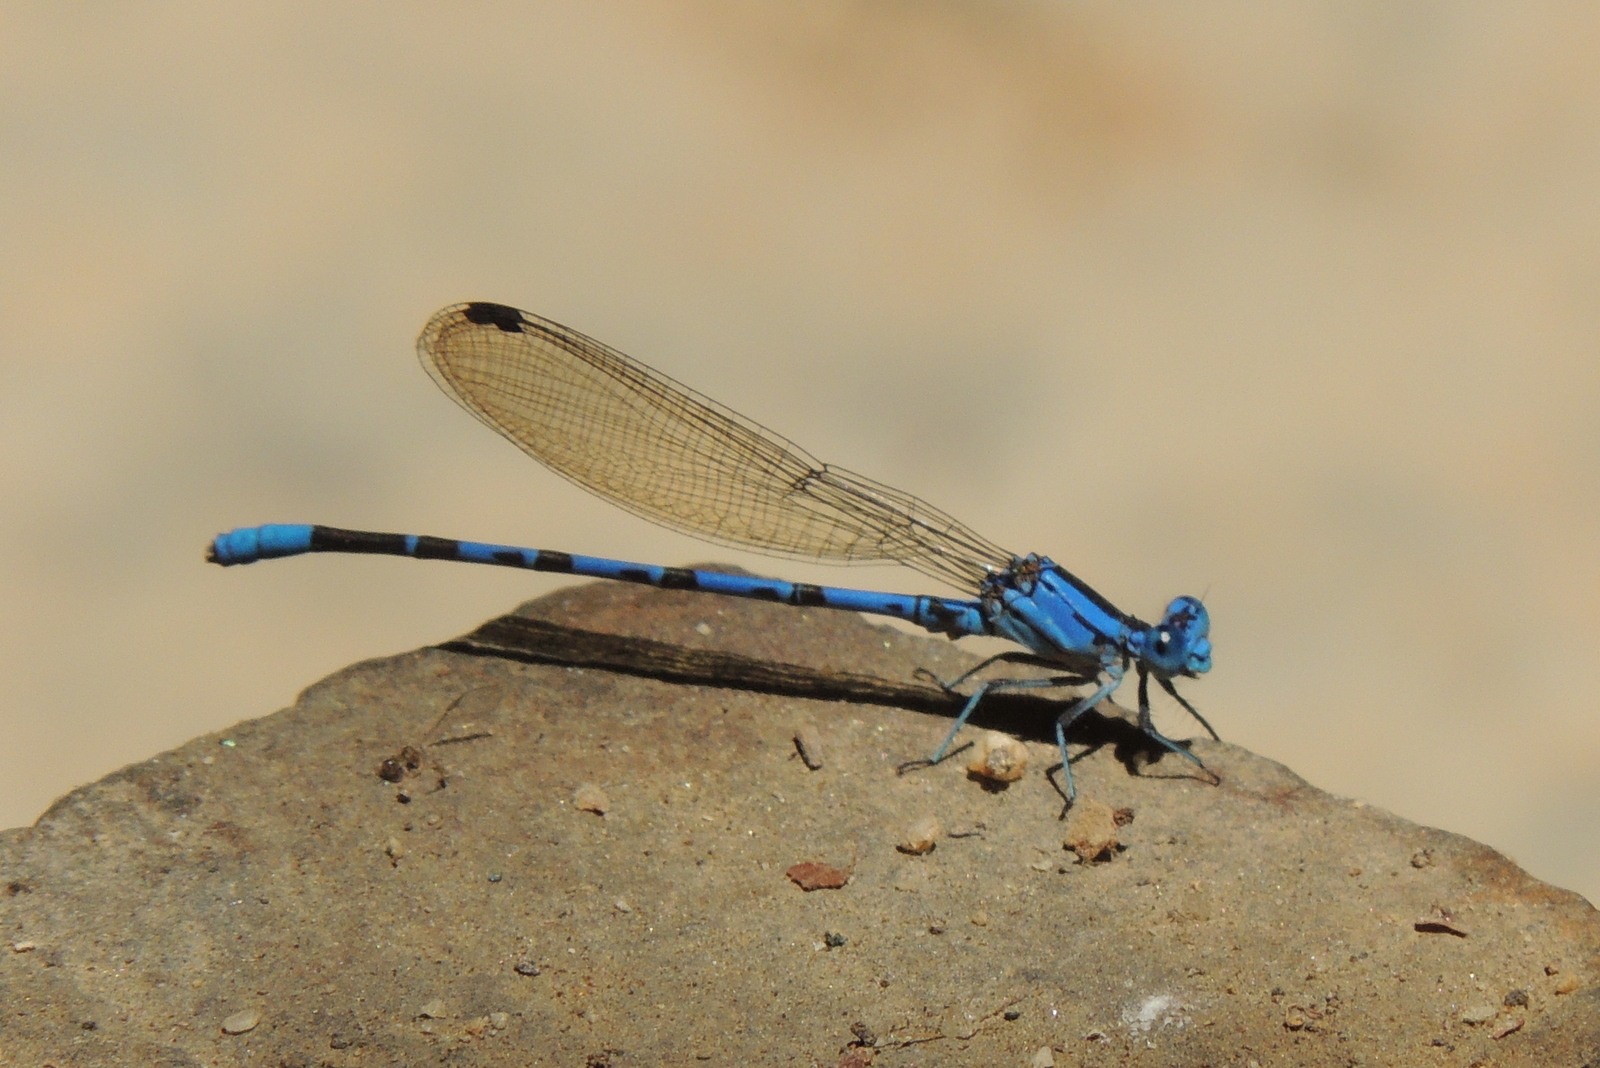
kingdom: Animalia
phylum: Arthropoda
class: Insecta
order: Odonata
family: Coenagrionidae
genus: Argia
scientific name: Argia vivida
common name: Vivid dancer
